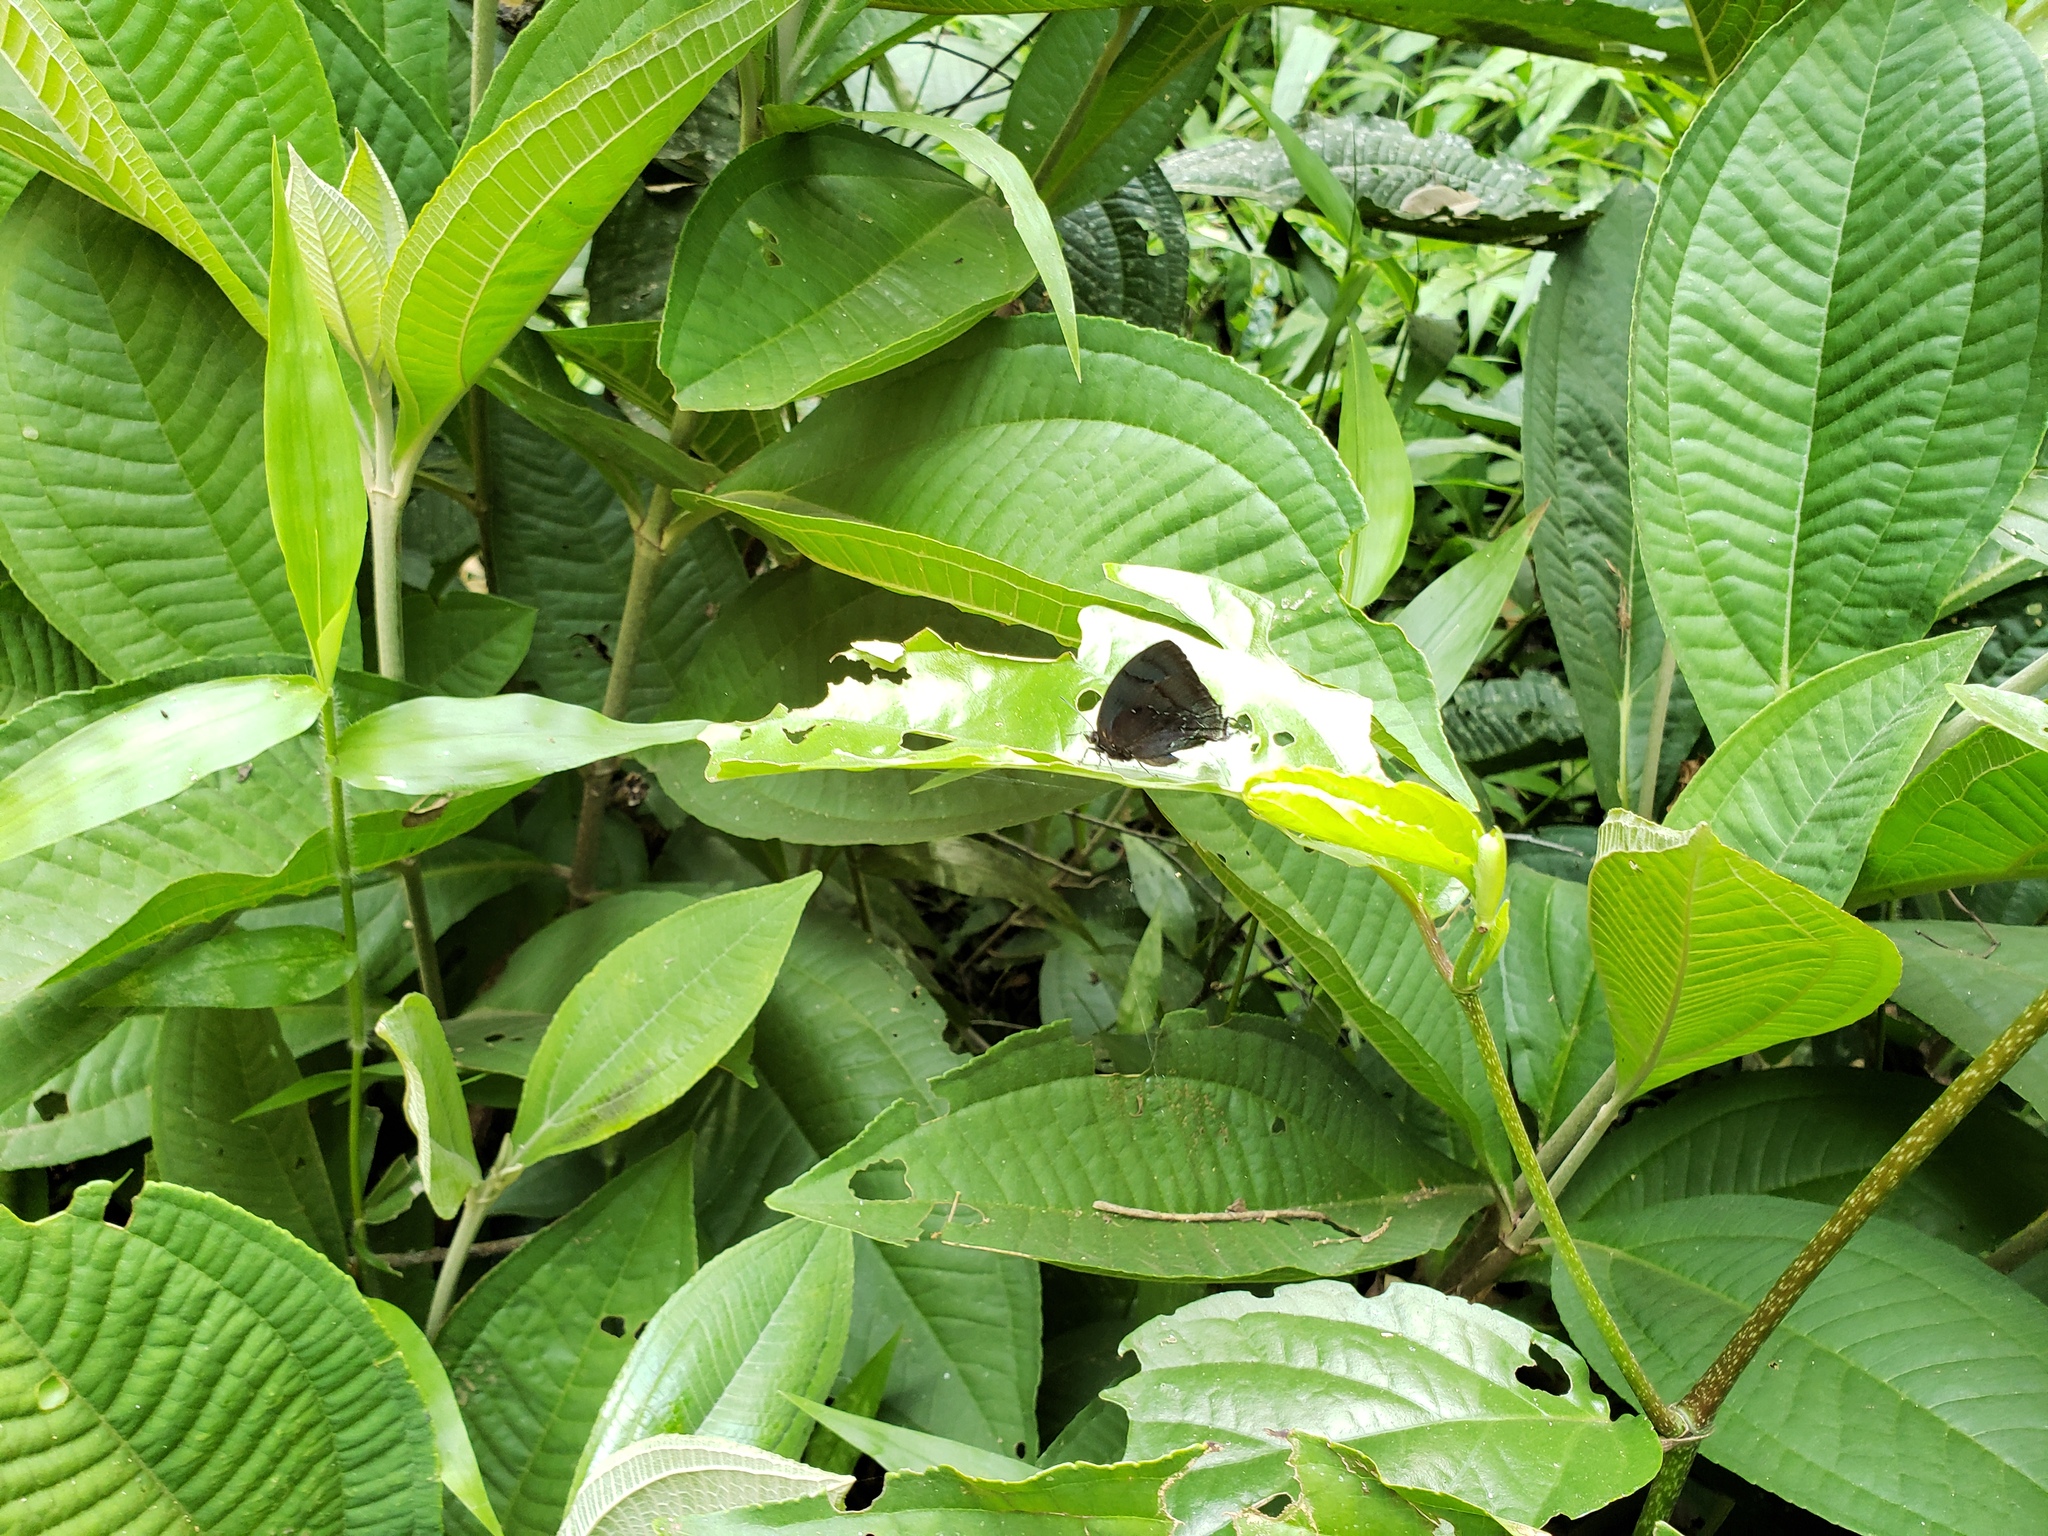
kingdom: Animalia
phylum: Arthropoda
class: Insecta
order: Lepidoptera
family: Lycaenidae
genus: Denivia
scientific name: Denivia hemon
